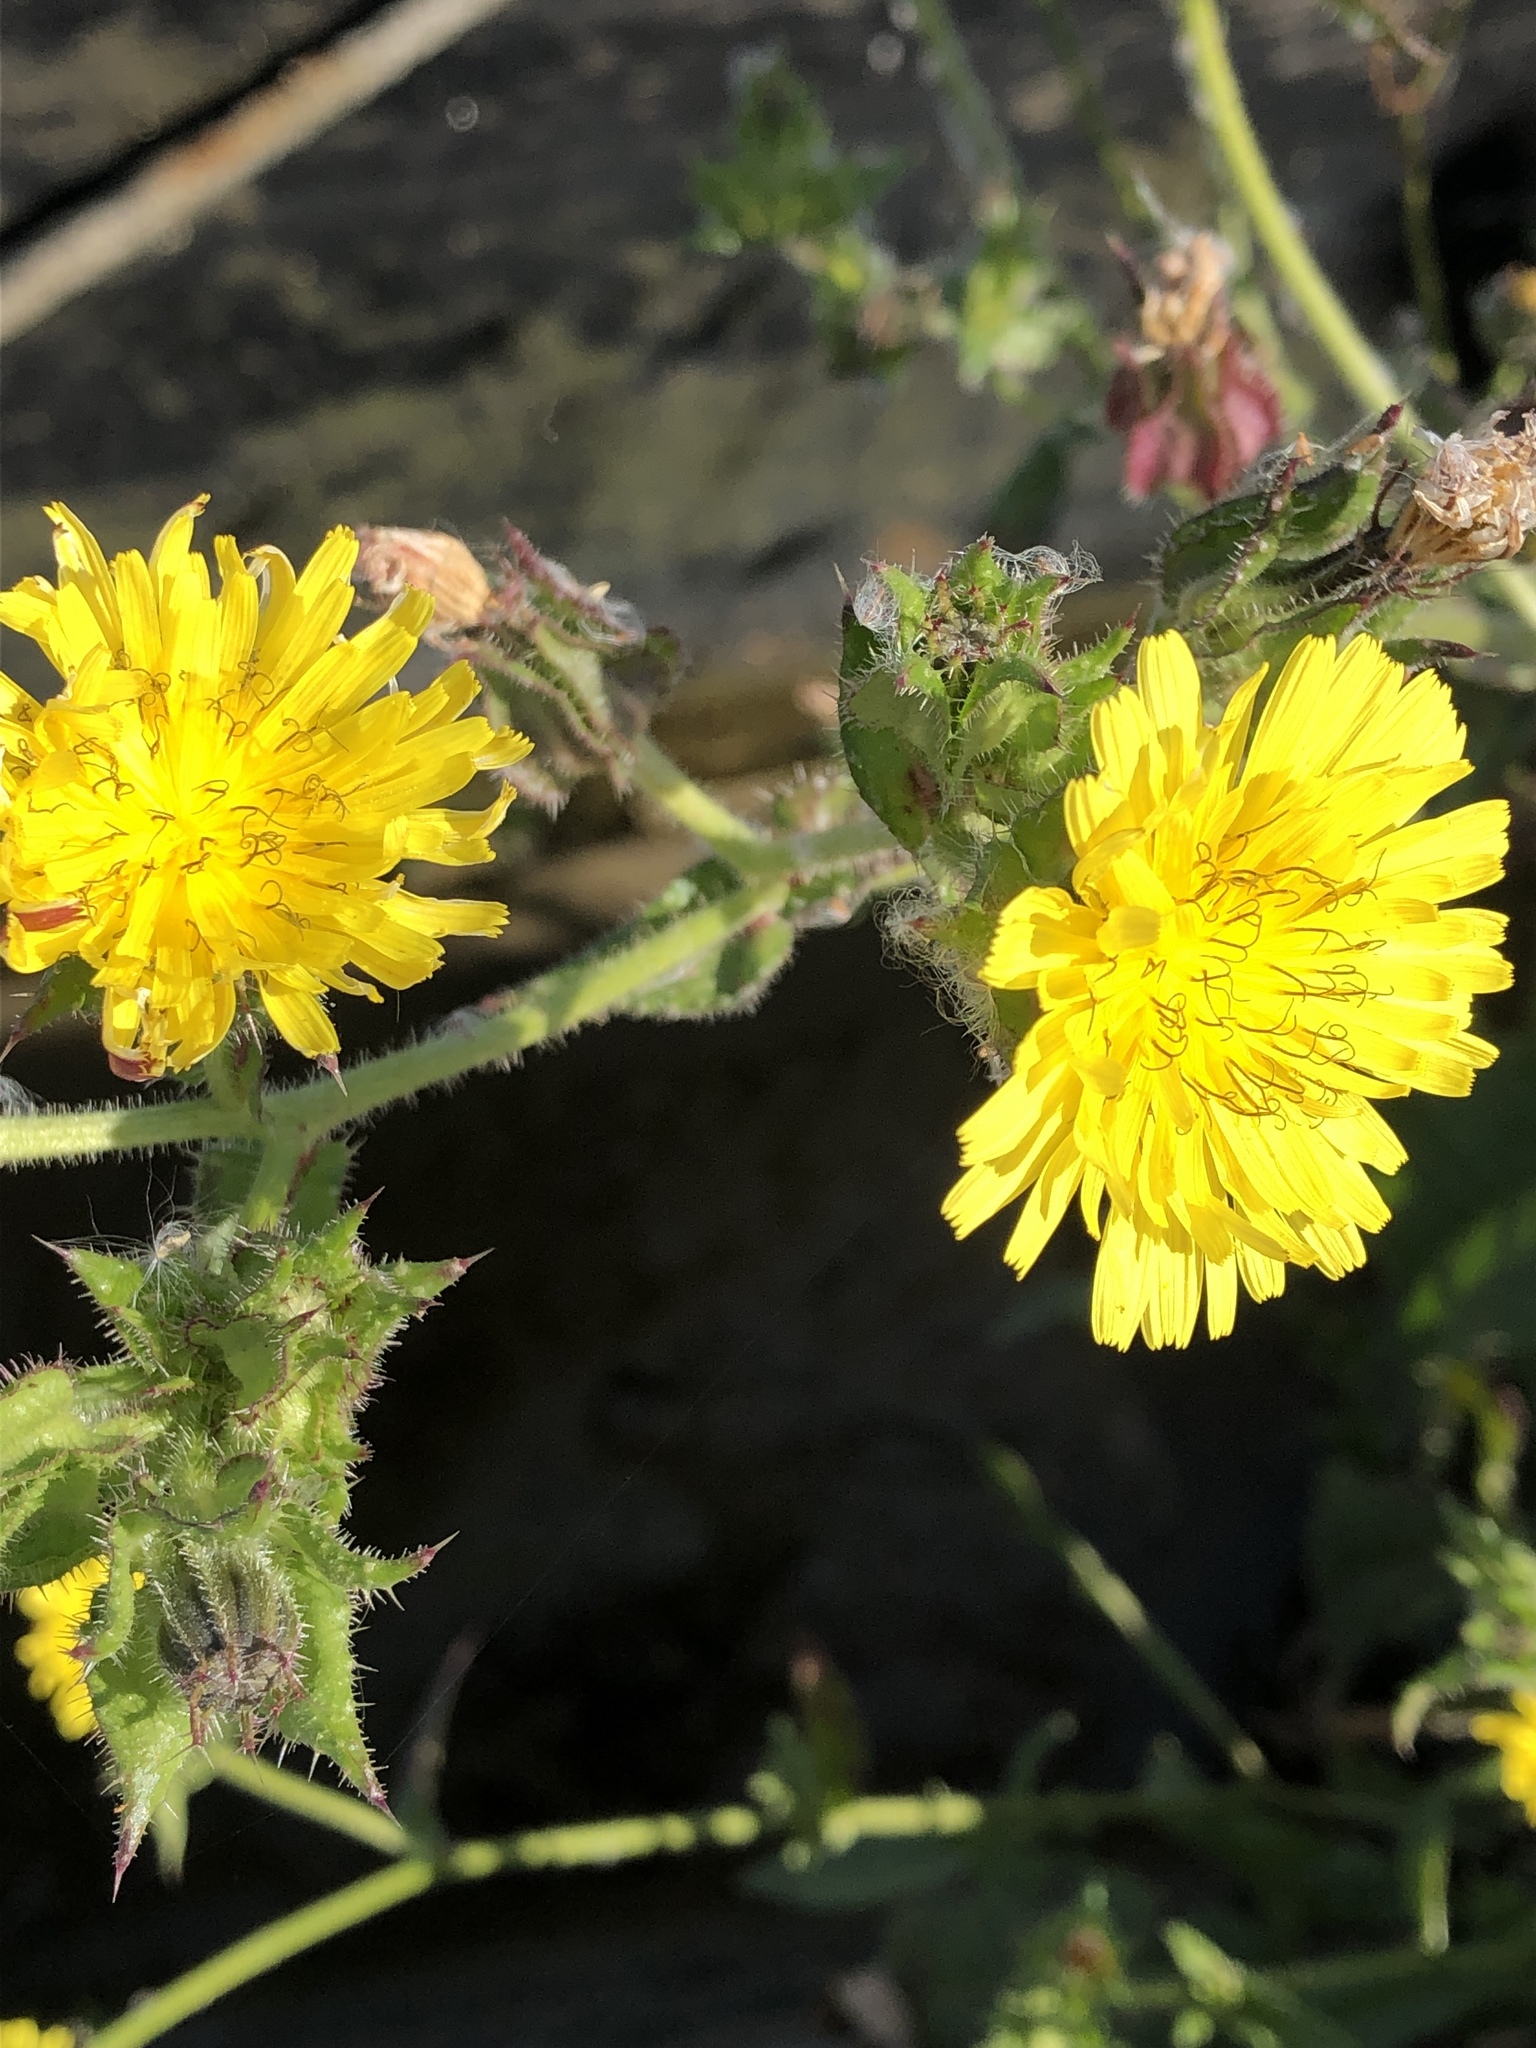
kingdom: Plantae
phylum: Tracheophyta
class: Magnoliopsida
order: Asterales
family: Asteraceae
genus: Helminthotheca
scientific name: Helminthotheca echioides
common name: Ox-tongue
